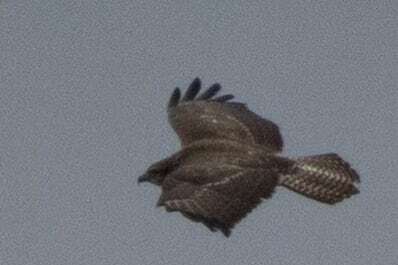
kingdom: Animalia
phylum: Chordata
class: Aves
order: Accipitriformes
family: Accipitridae
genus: Buteo
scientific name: Buteo buteo
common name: Common buzzard
